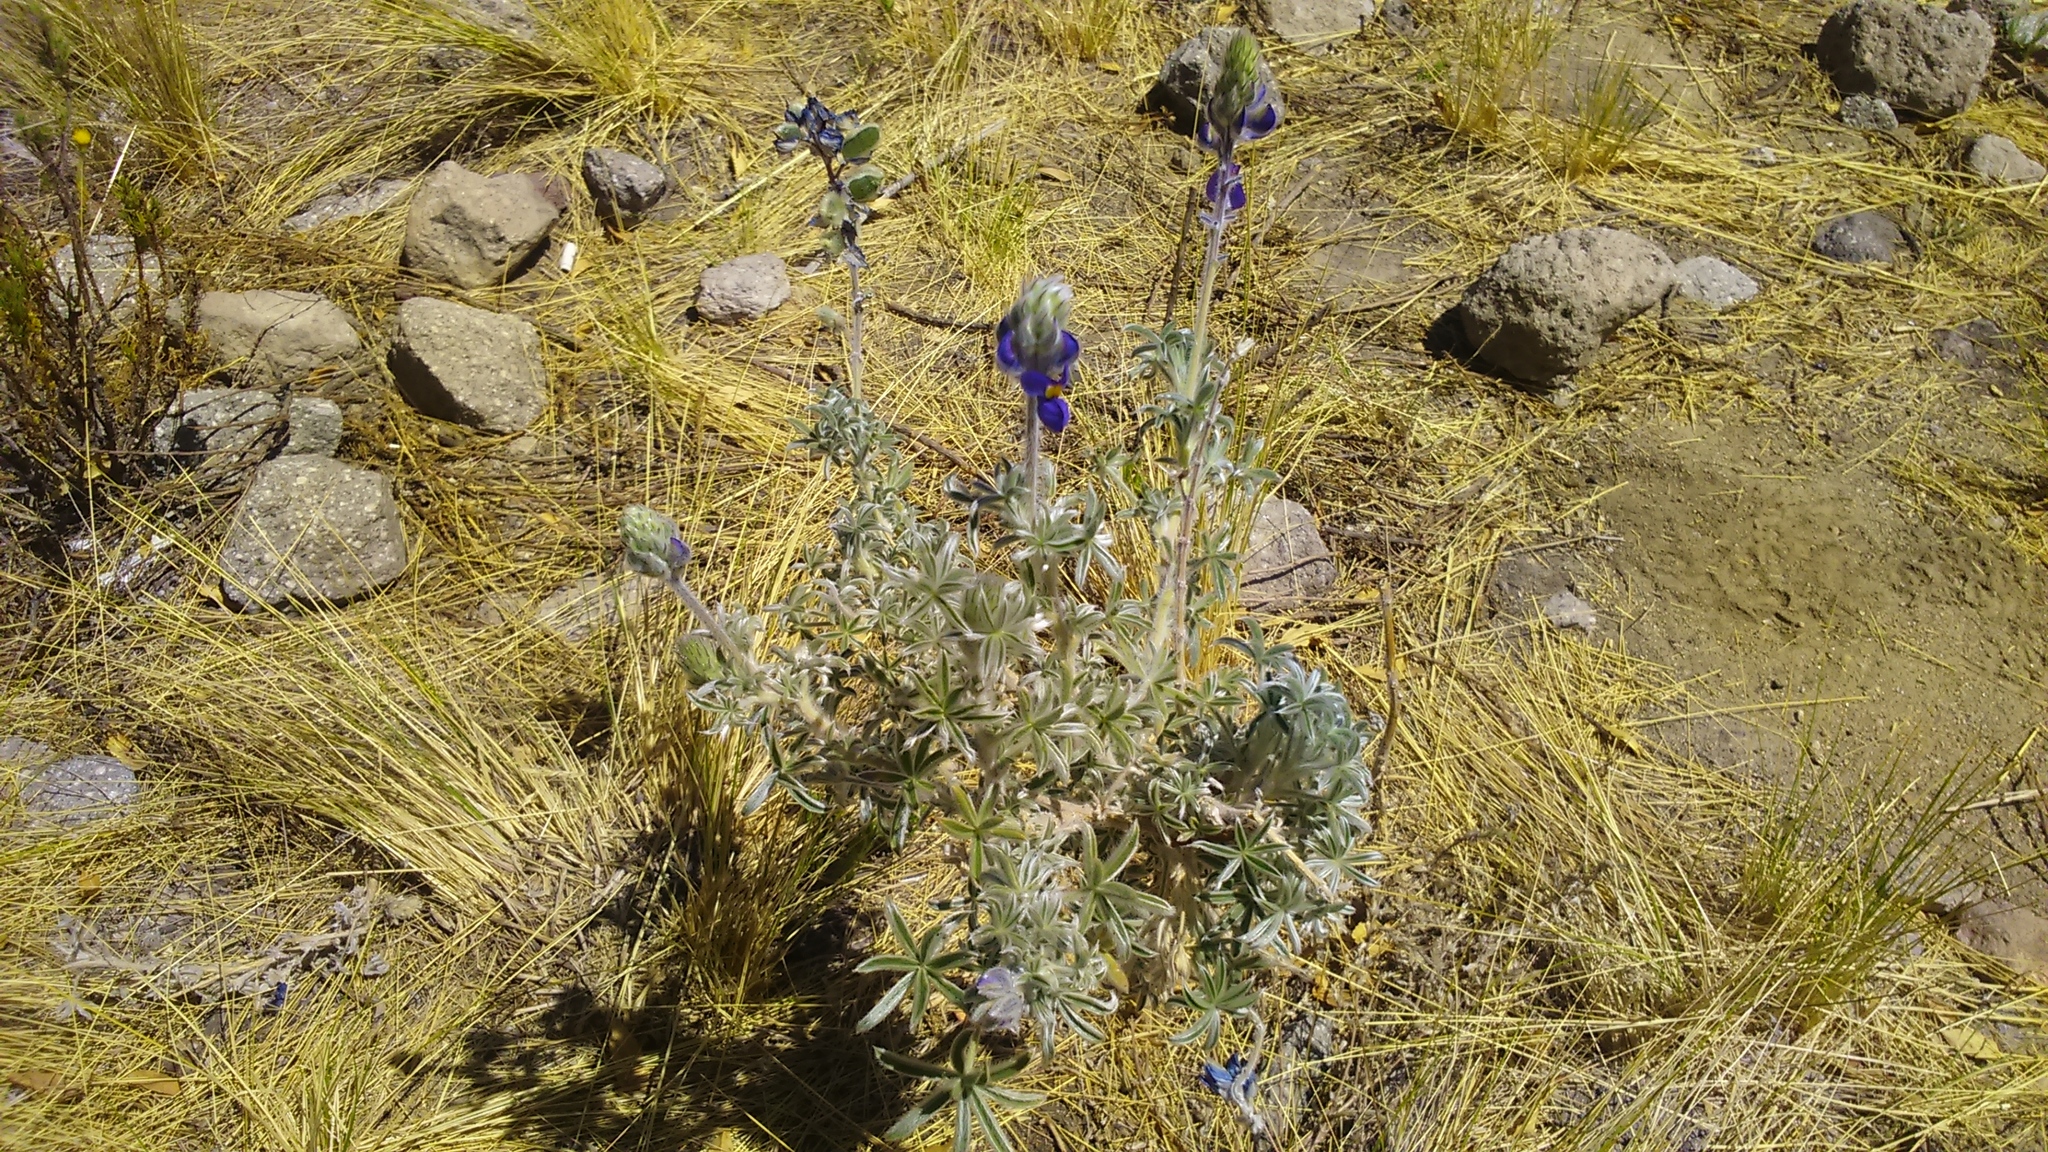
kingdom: Plantae
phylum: Tracheophyta
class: Magnoliopsida
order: Fabales
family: Fabaceae
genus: Lupinus
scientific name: Lupinus munzianus
